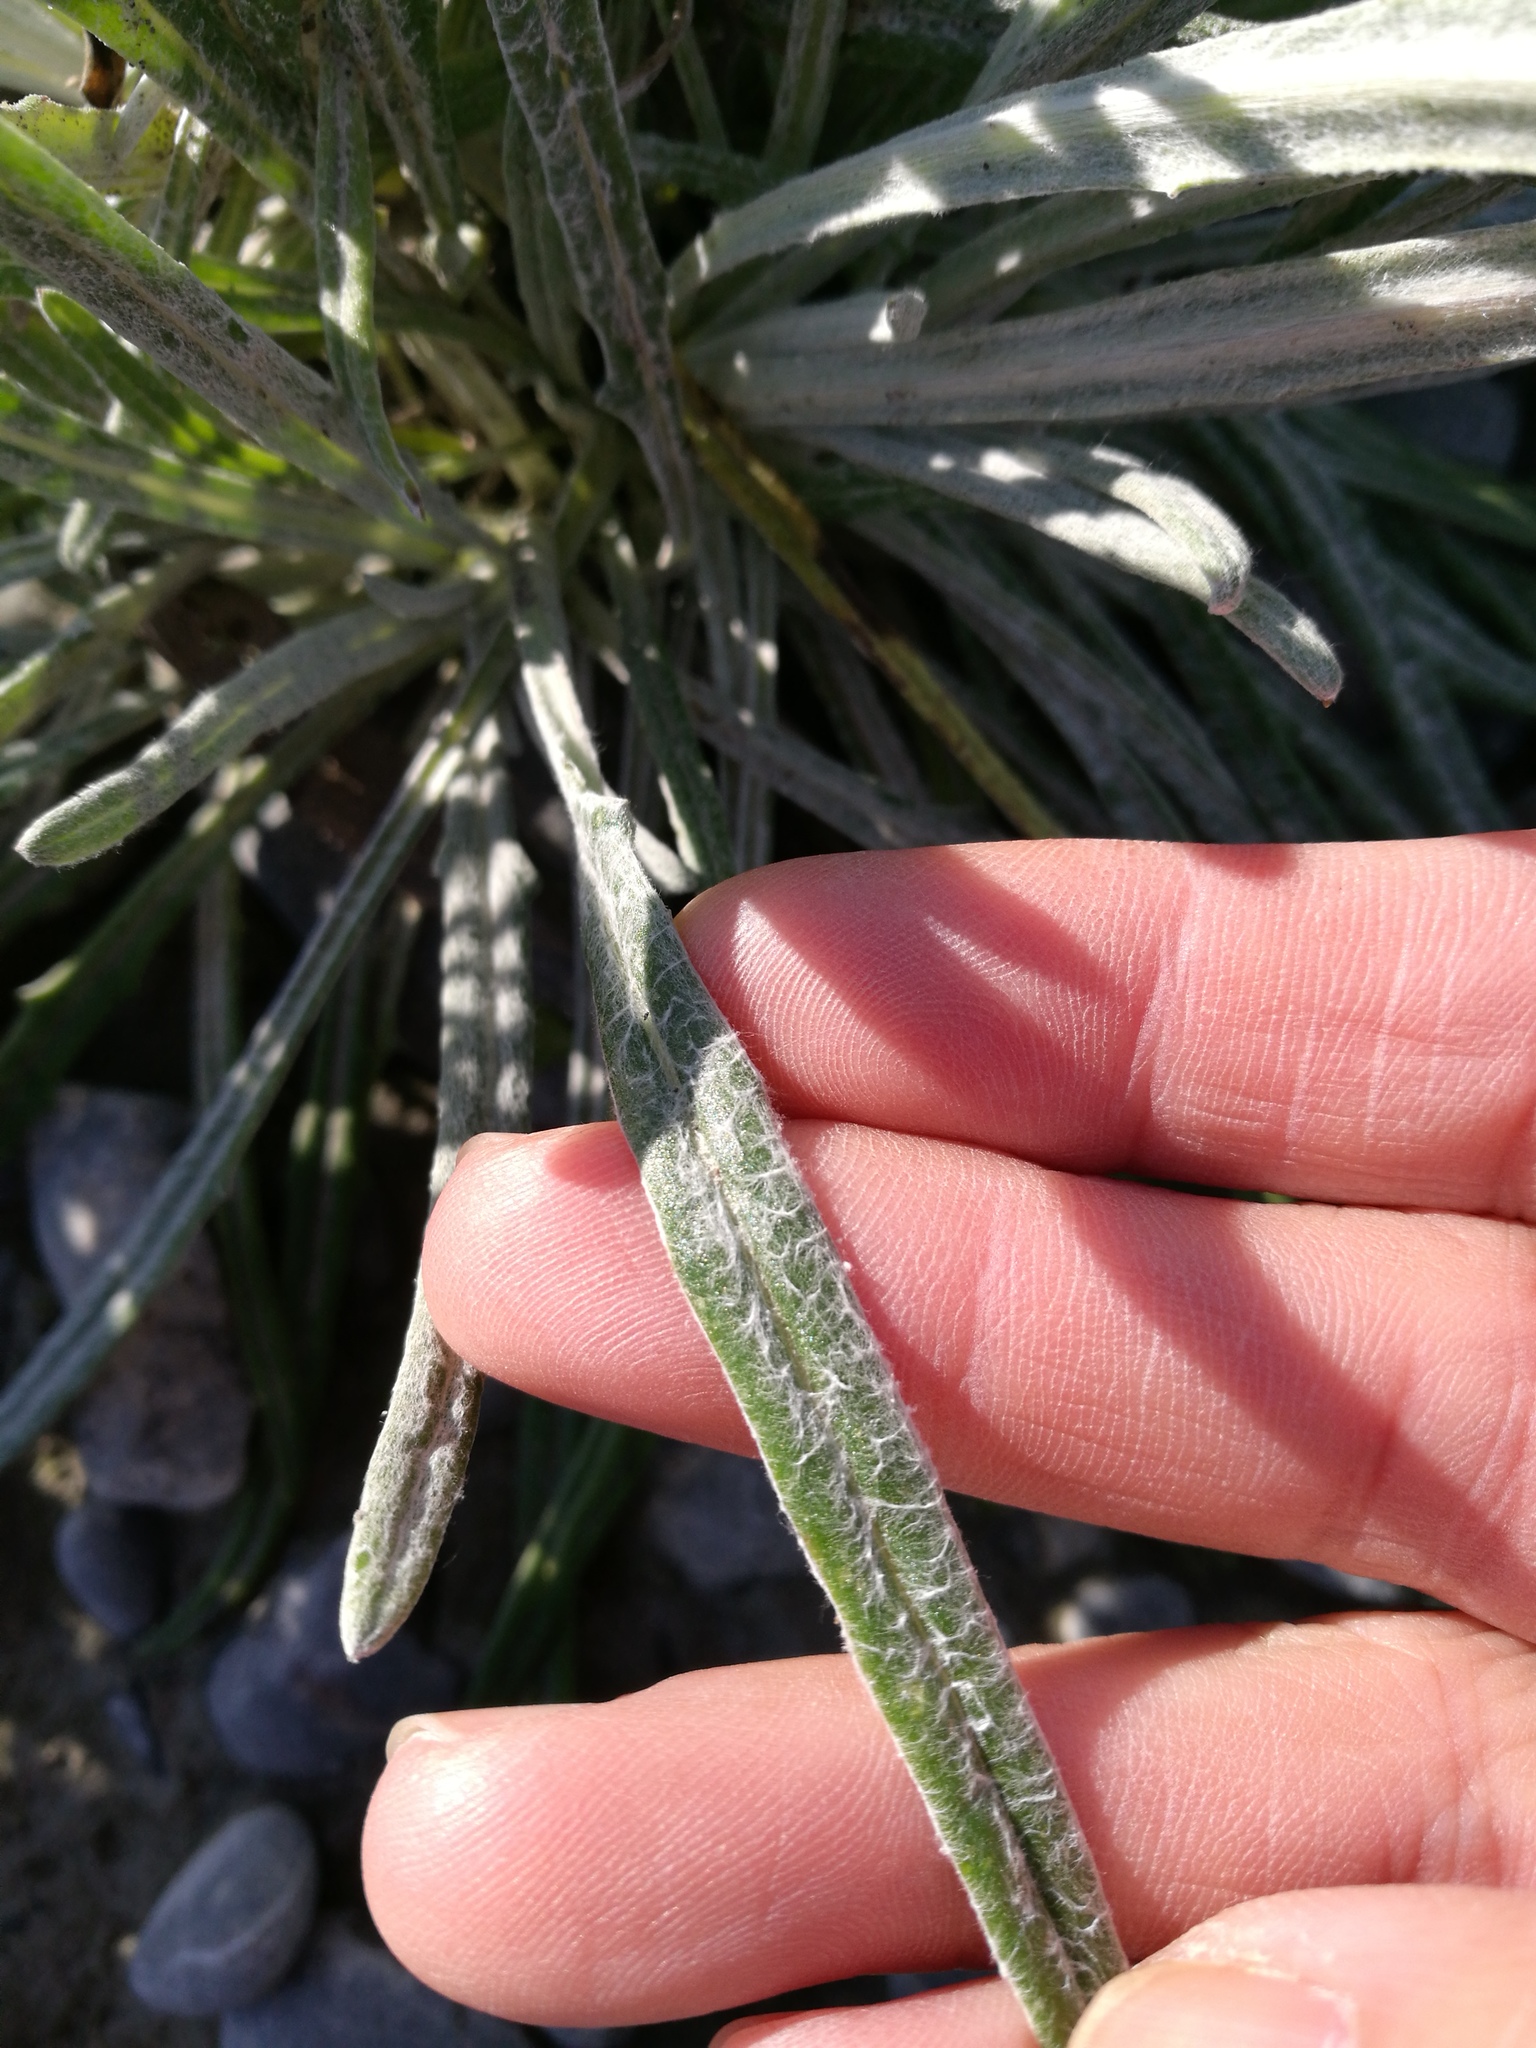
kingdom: Plantae
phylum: Tracheophyta
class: Magnoliopsida
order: Asterales
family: Asteraceae
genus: Senecio
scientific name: Senecio quadridentatus
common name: Cotton fireweed
